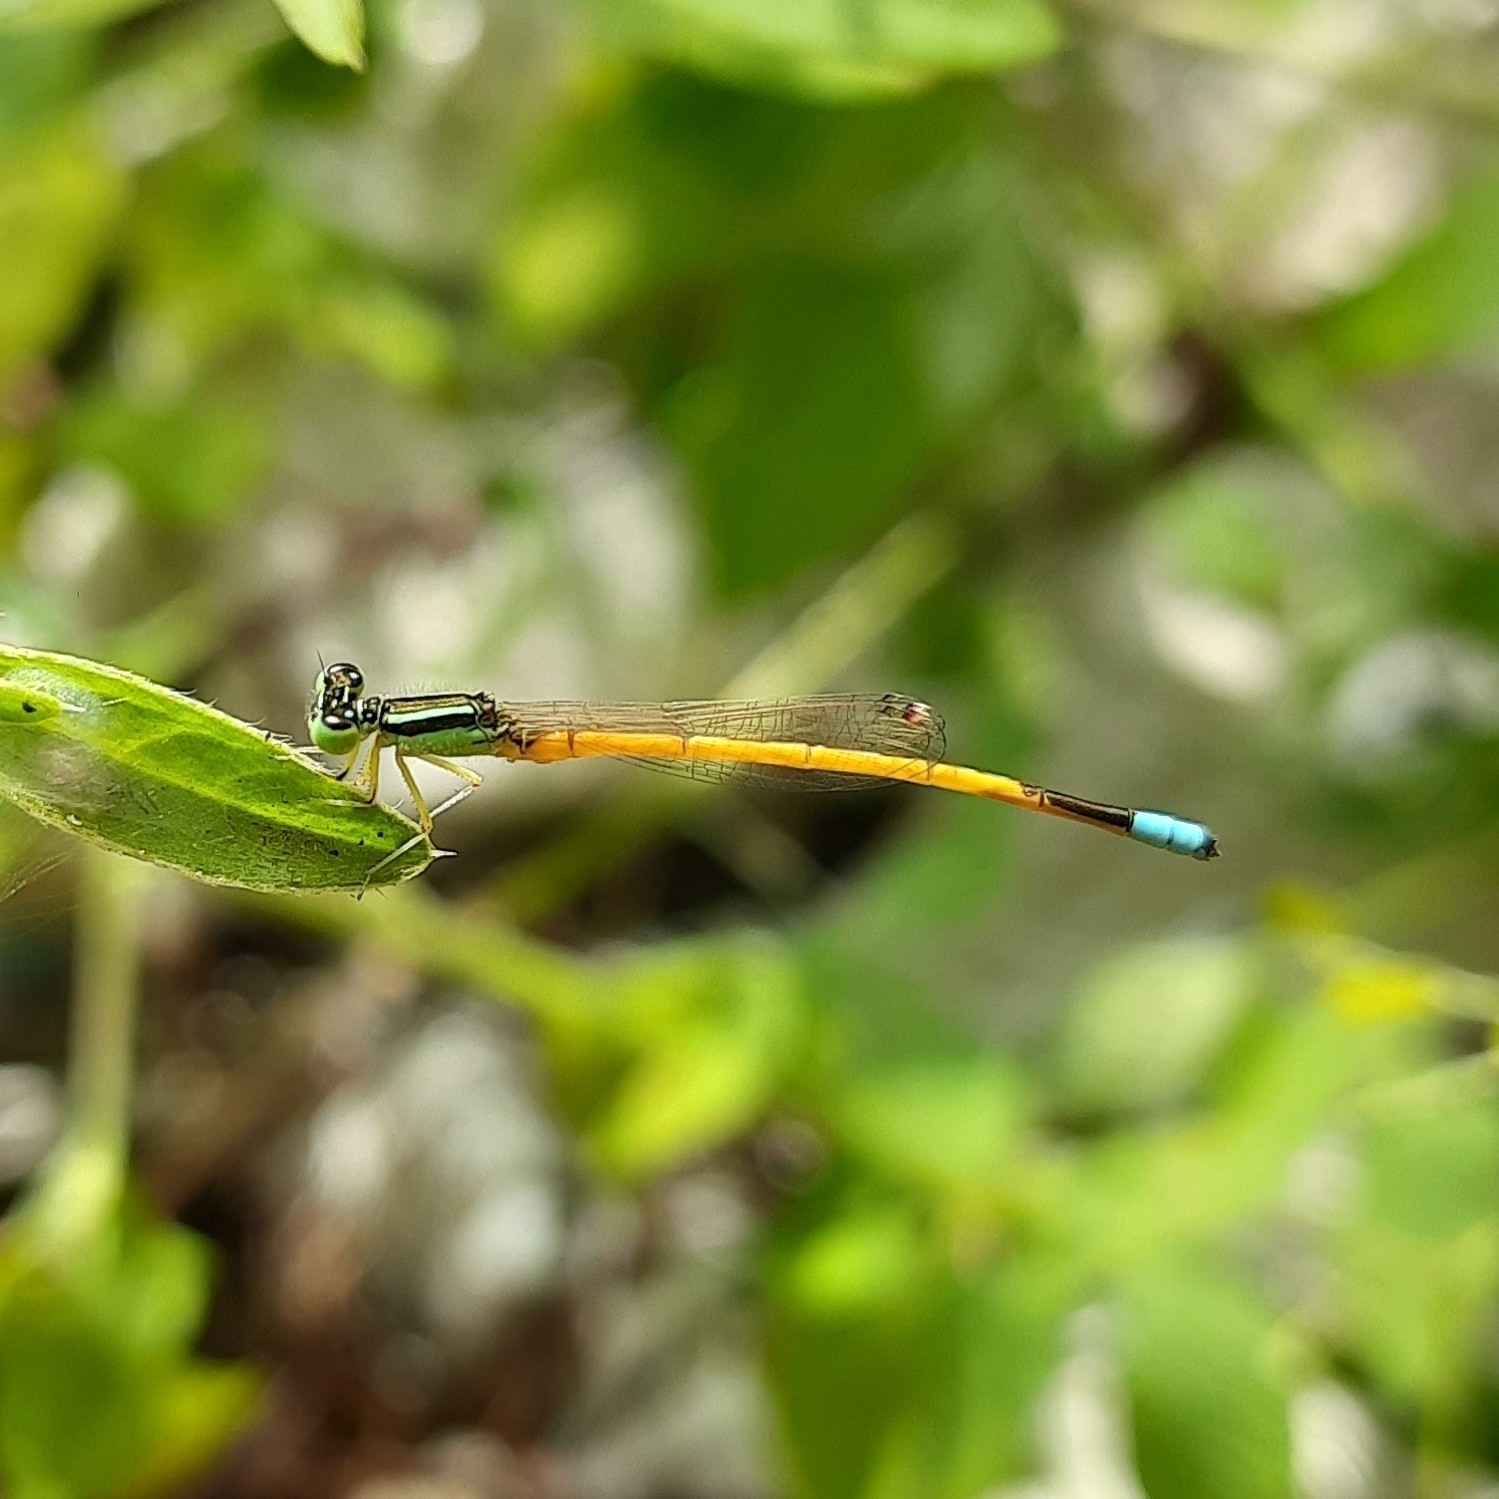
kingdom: Animalia
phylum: Arthropoda
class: Insecta
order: Odonata
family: Coenagrionidae
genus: Ischnura
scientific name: Ischnura rubilio
